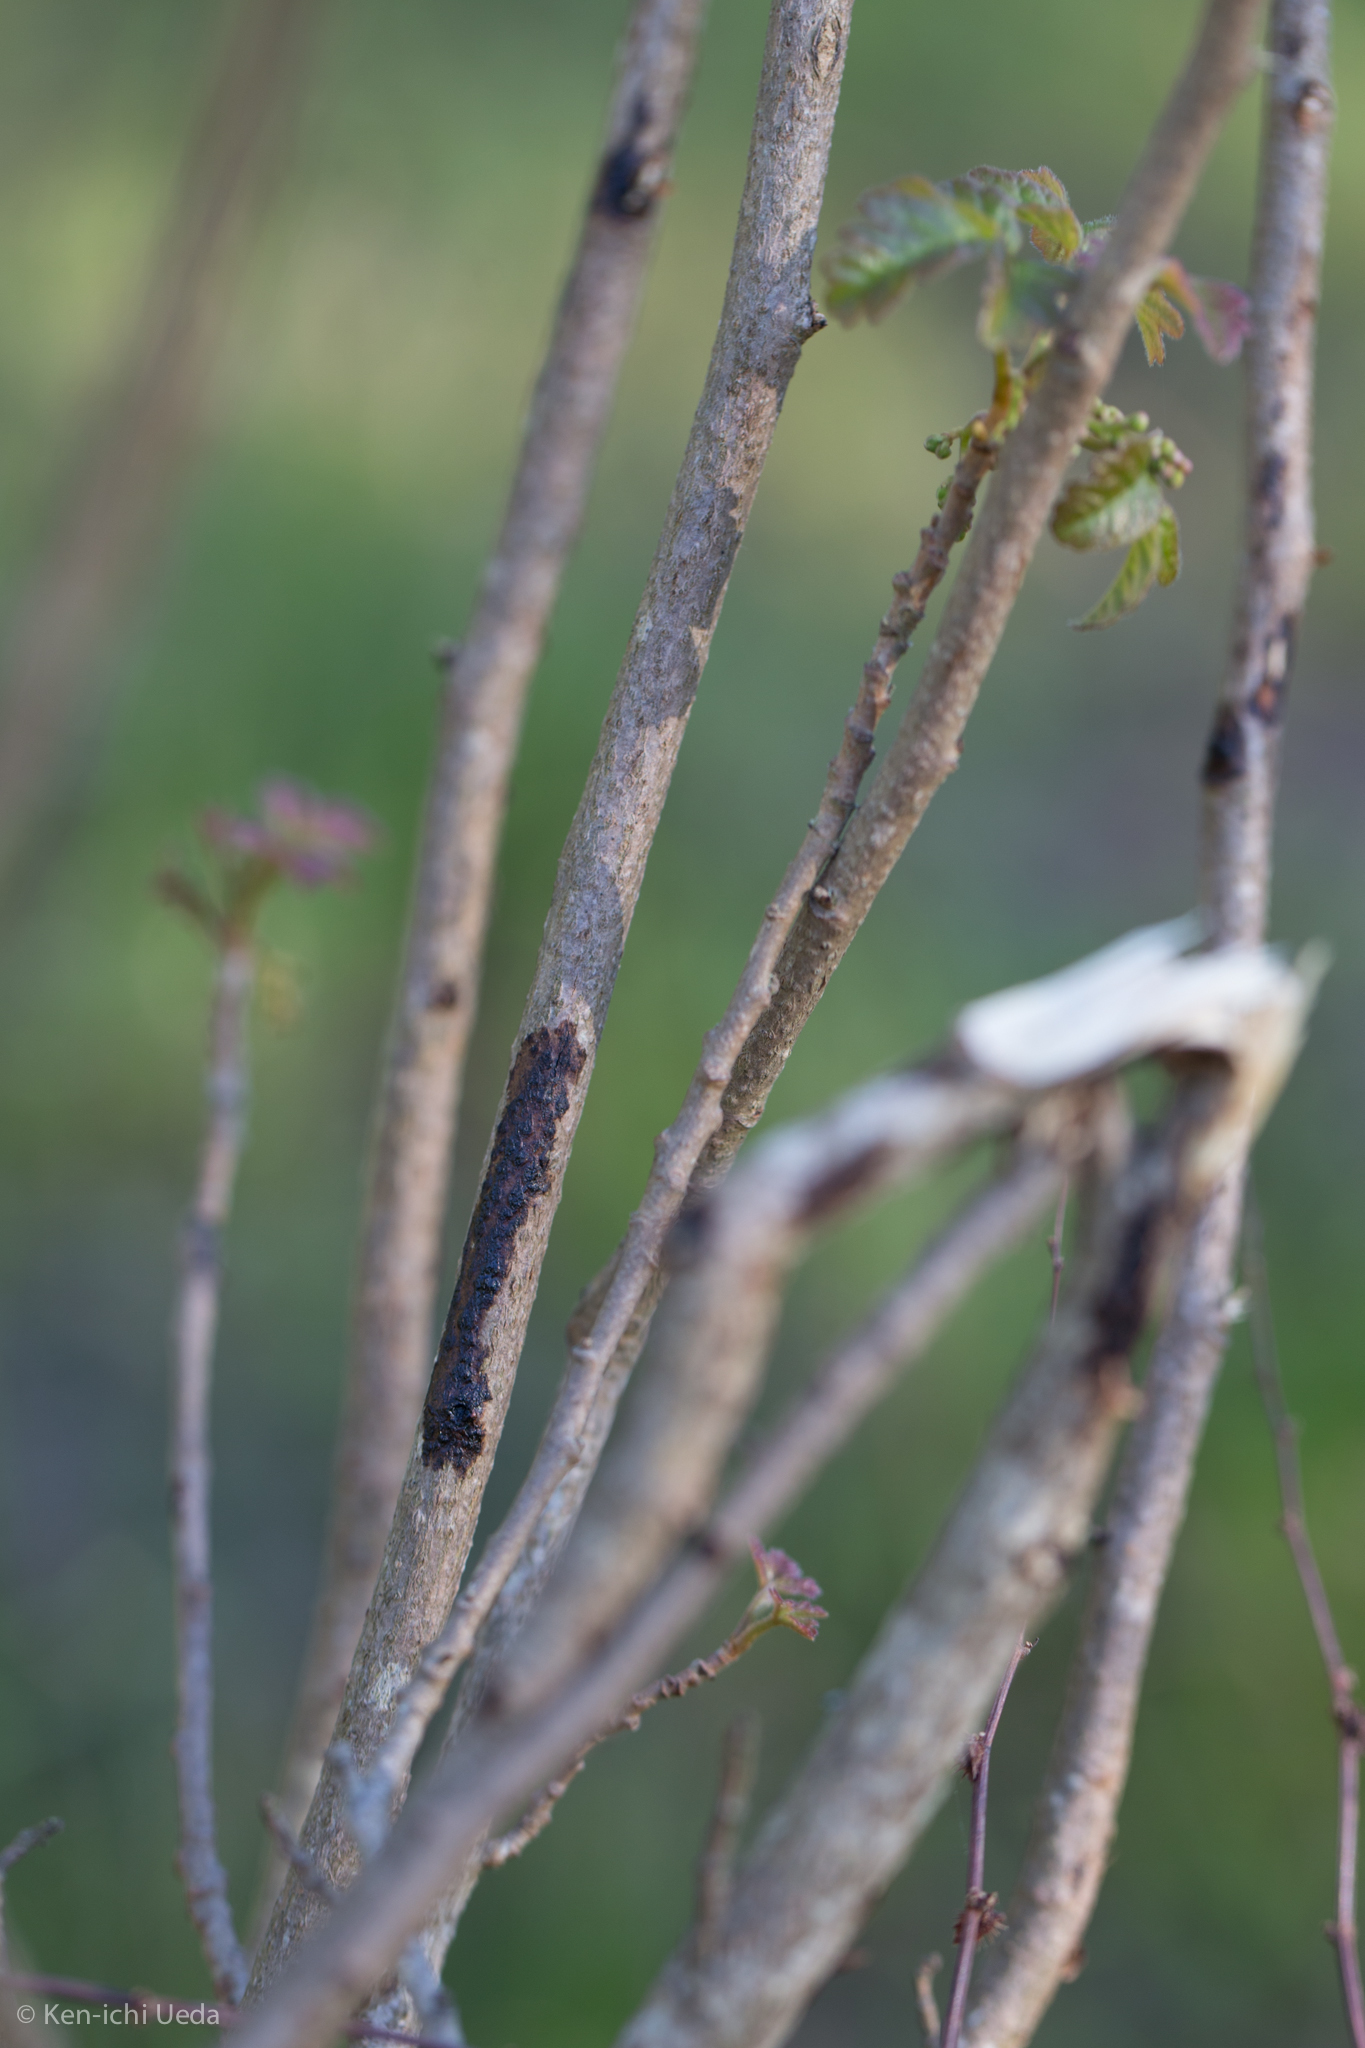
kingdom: Plantae
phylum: Tracheophyta
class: Magnoliopsida
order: Sapindales
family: Anacardiaceae
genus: Toxicodendron
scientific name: Toxicodendron diversilobum
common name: Pacific poison-oak
